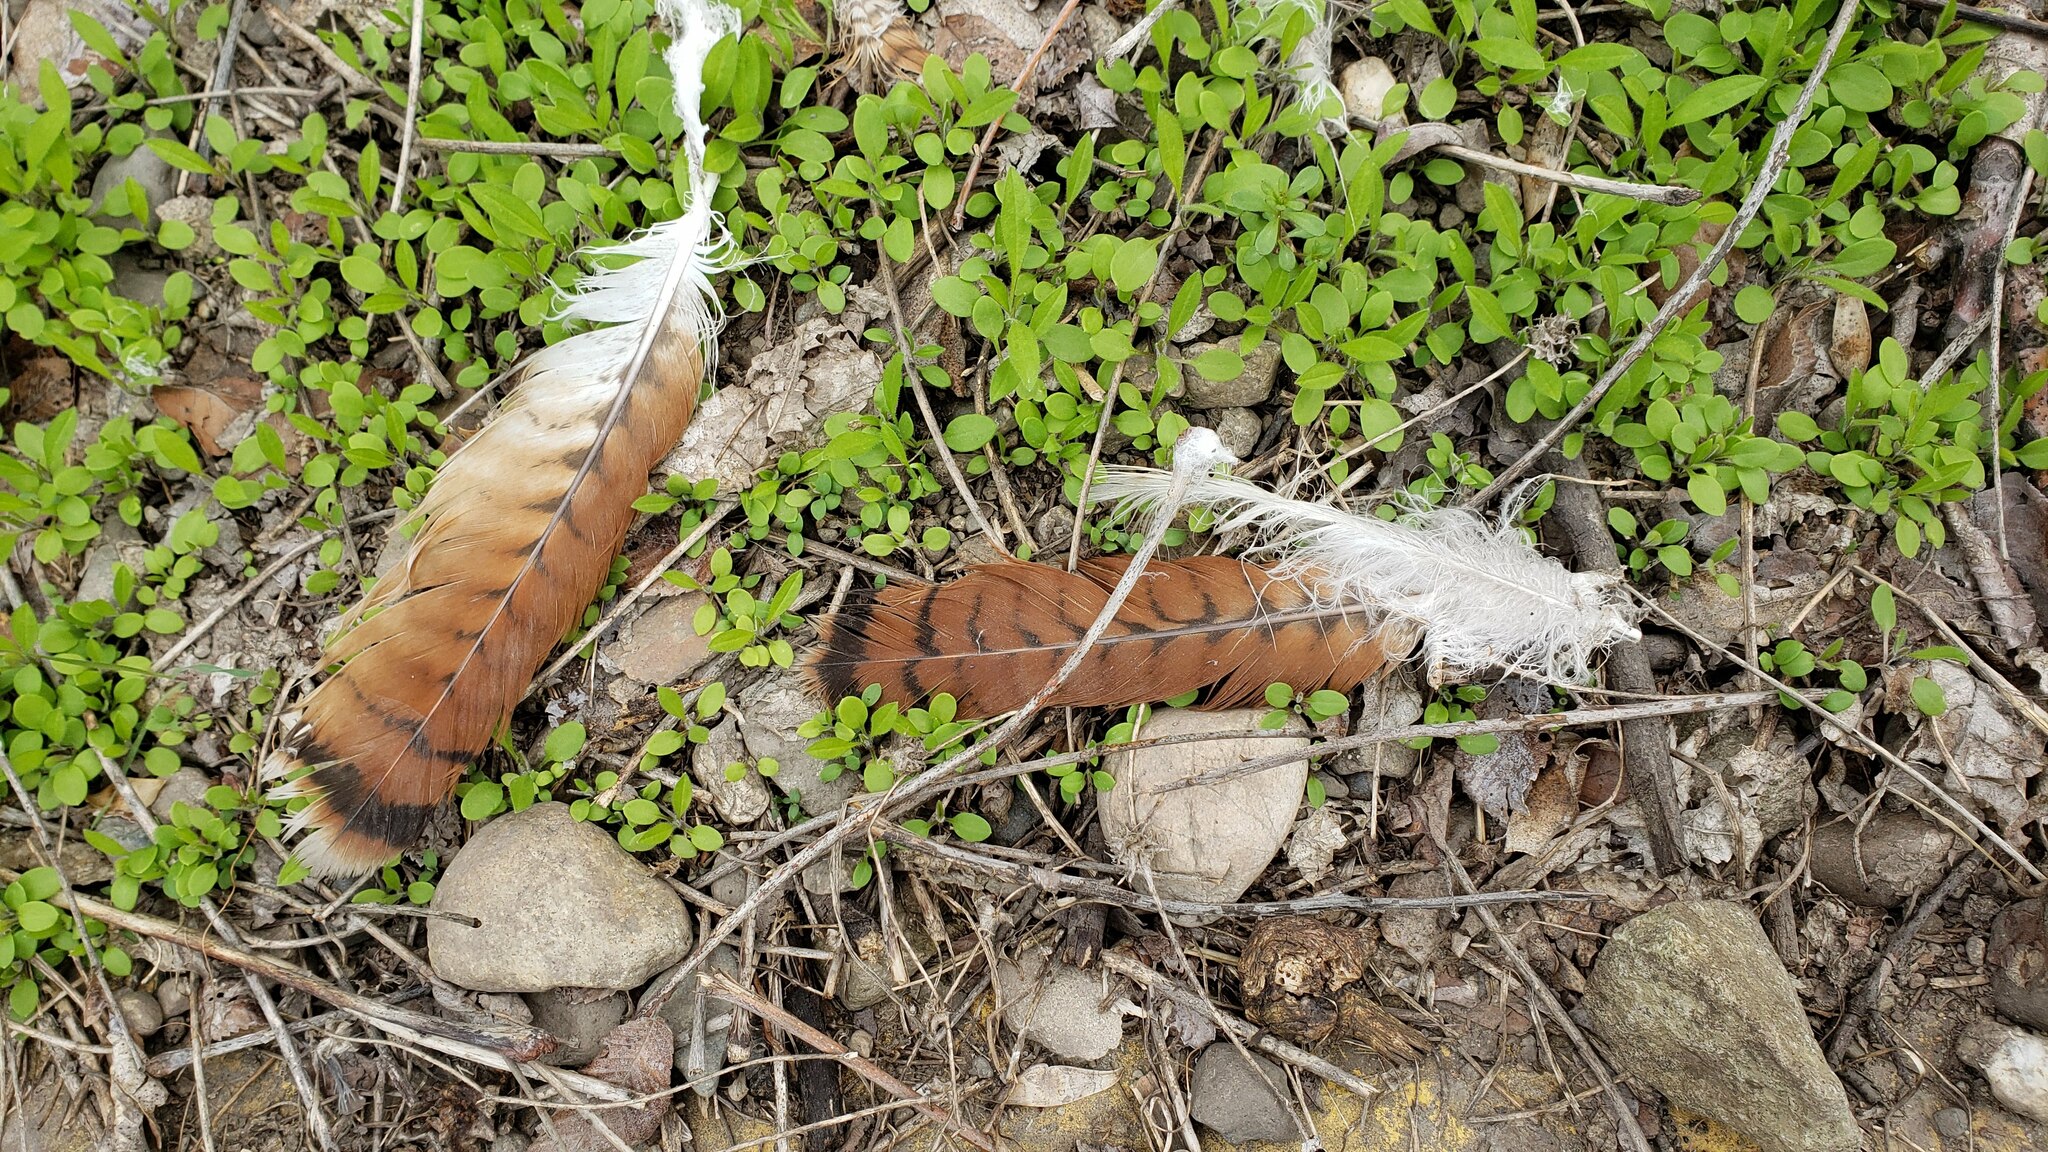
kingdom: Animalia
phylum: Chordata
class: Aves
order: Accipitriformes
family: Accipitridae
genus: Buteo
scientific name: Buteo jamaicensis
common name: Red-tailed hawk
